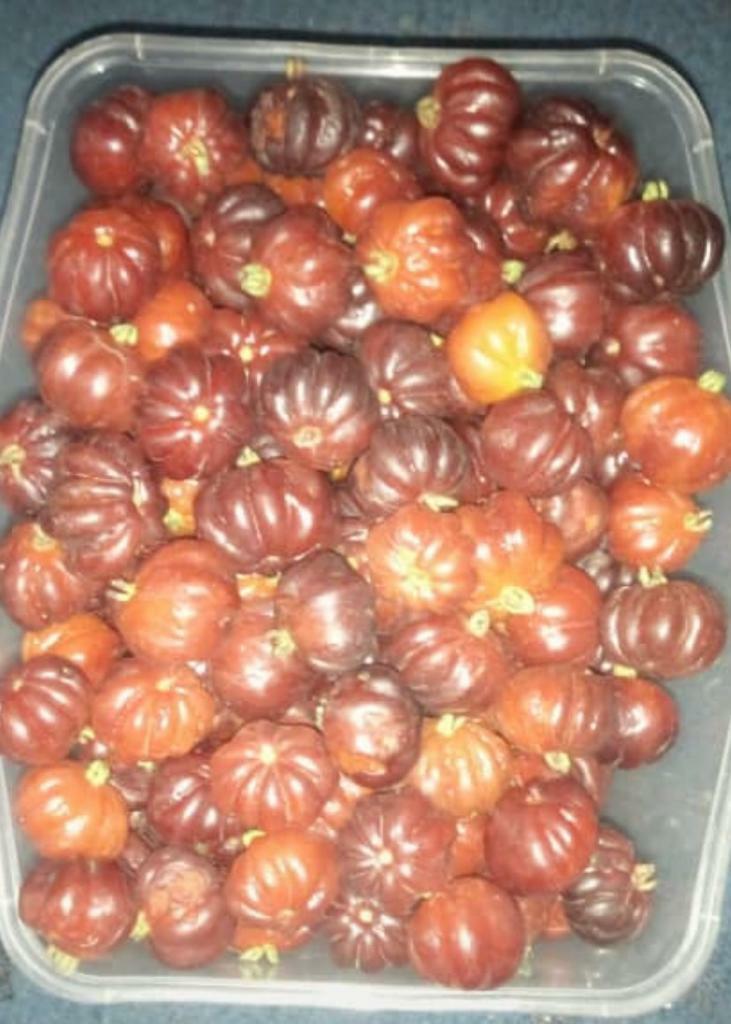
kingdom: Plantae
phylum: Tracheophyta
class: Magnoliopsida
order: Myrtales
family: Myrtaceae
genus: Eugenia
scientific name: Eugenia uniflora
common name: Surinam cherry
